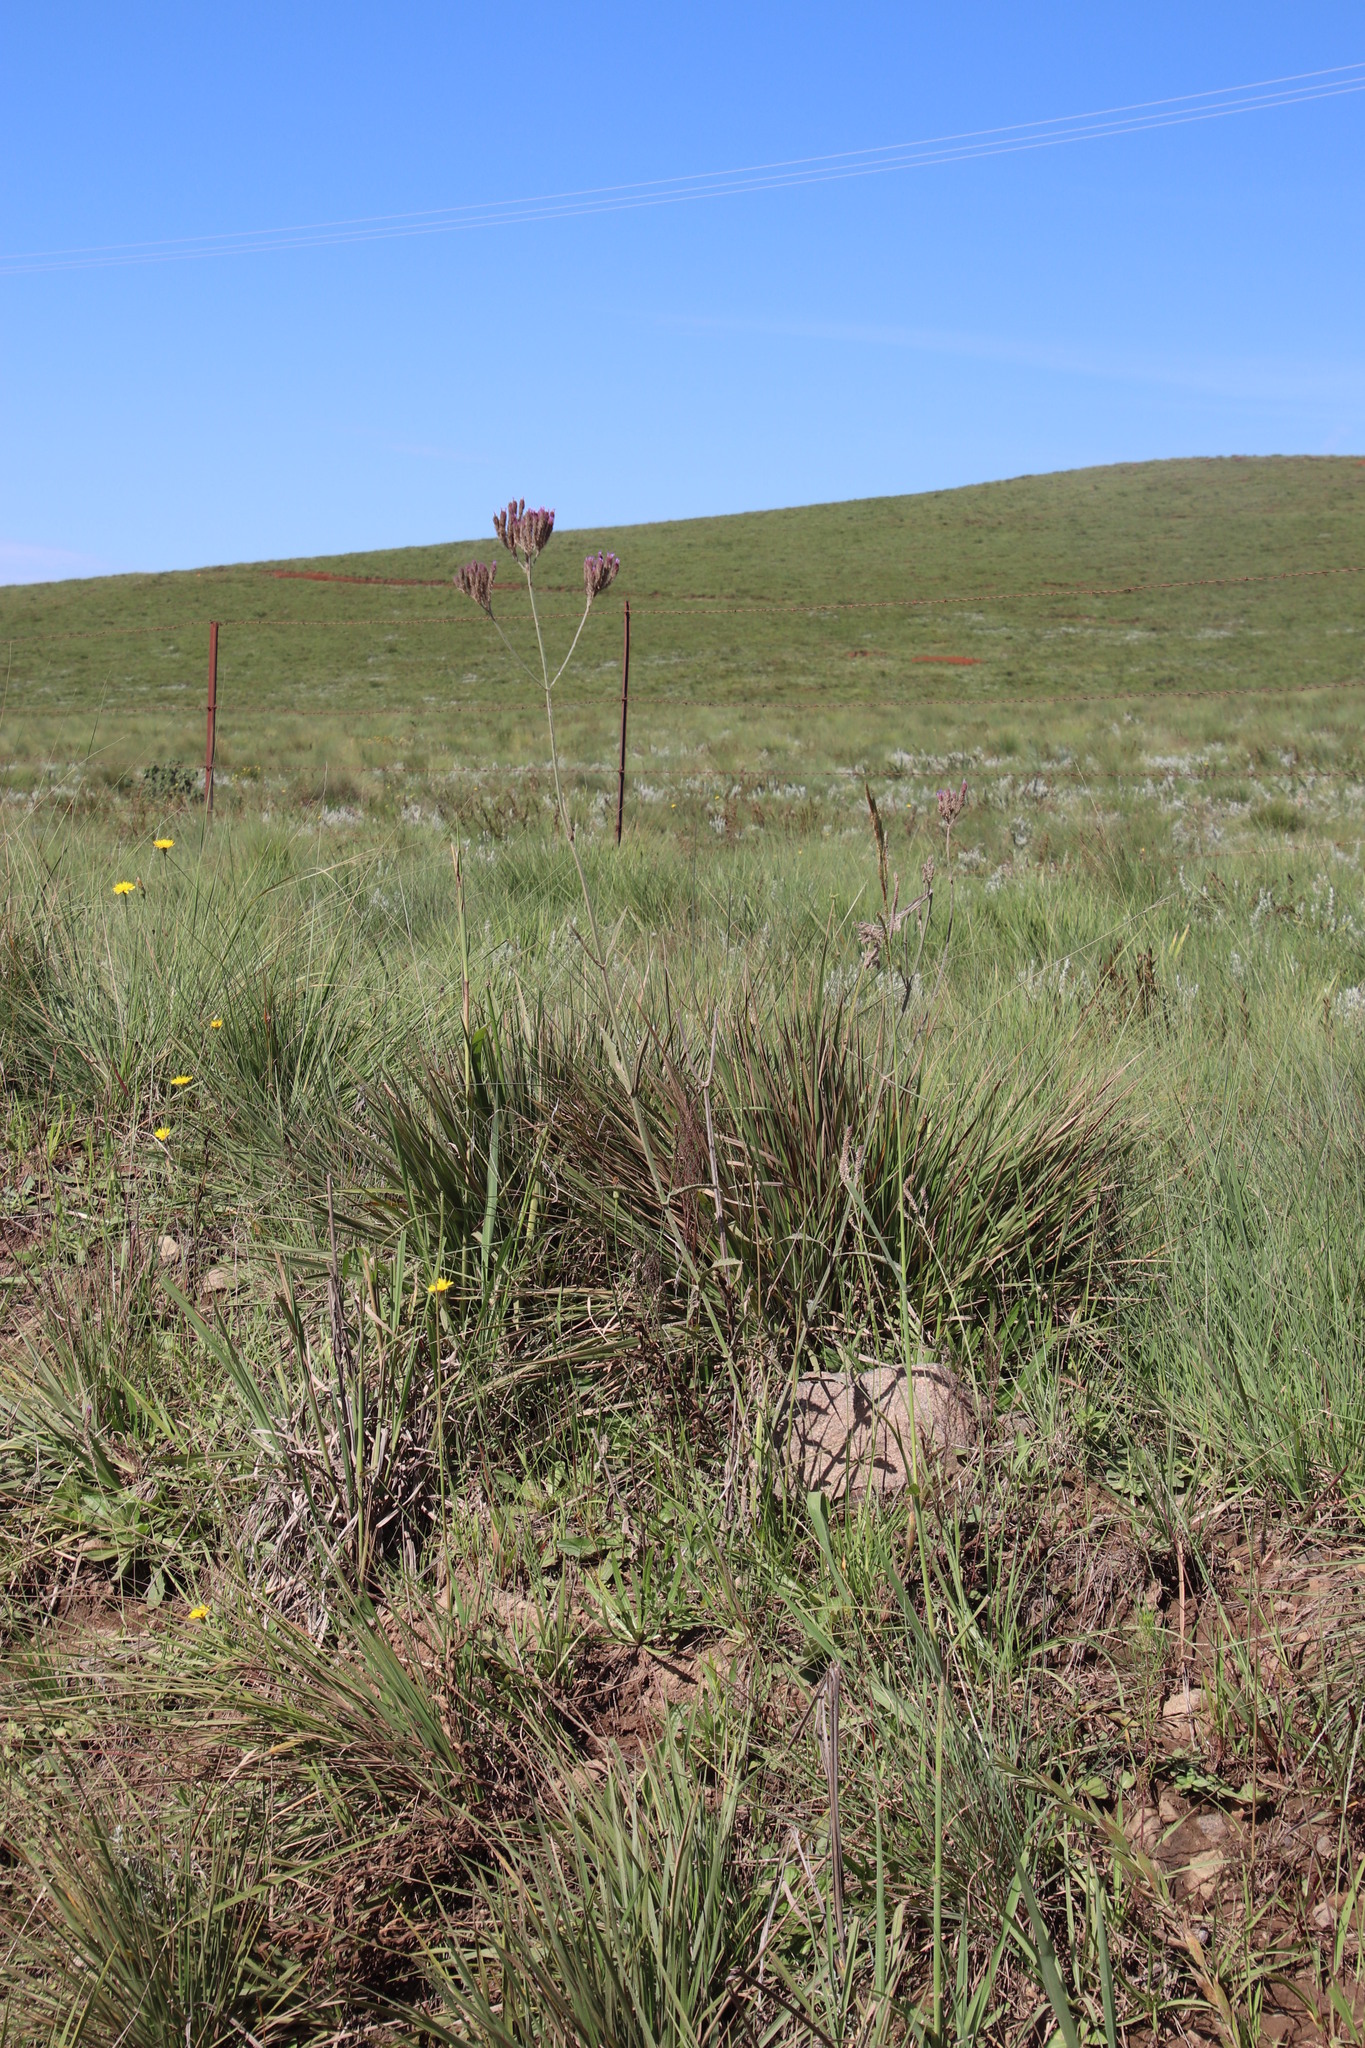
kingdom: Plantae
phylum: Tracheophyta
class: Magnoliopsida
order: Lamiales
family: Verbenaceae
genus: Verbena
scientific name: Verbena bonariensis
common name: Purpletop vervain
